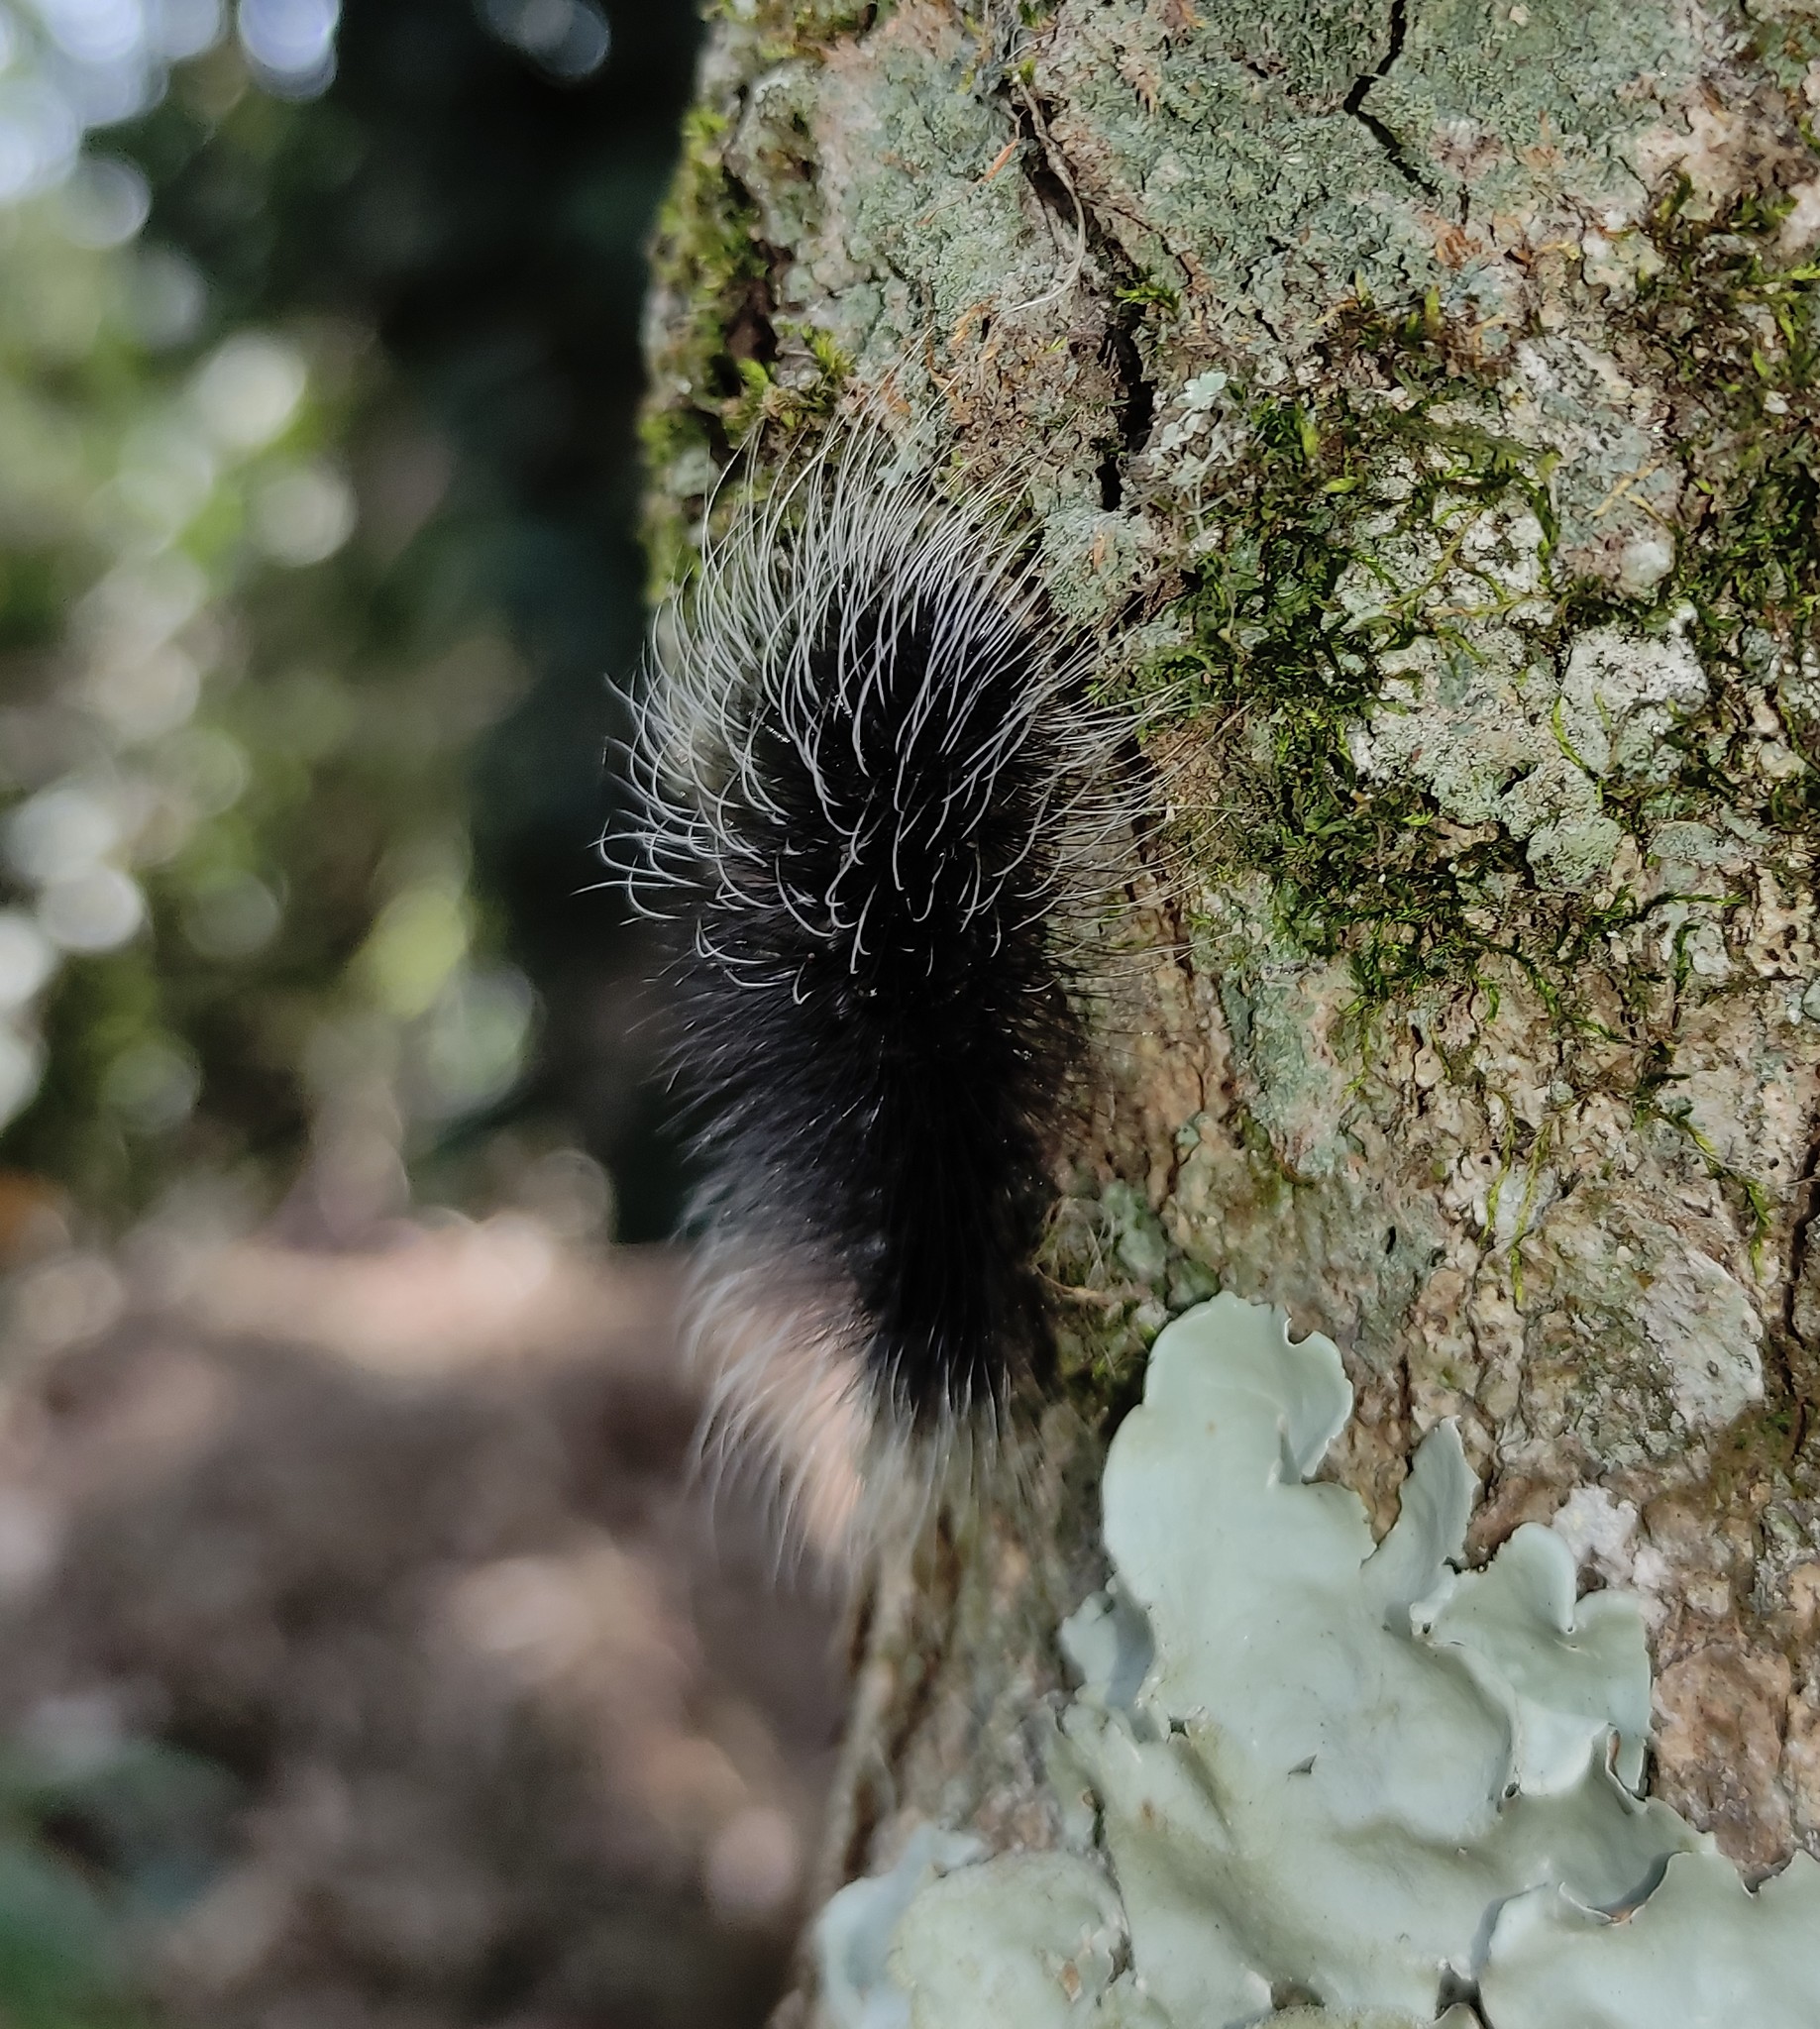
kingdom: Animalia
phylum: Arthropoda
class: Insecta
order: Lepidoptera
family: Erebidae
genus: Apistosia
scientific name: Apistosia judas
